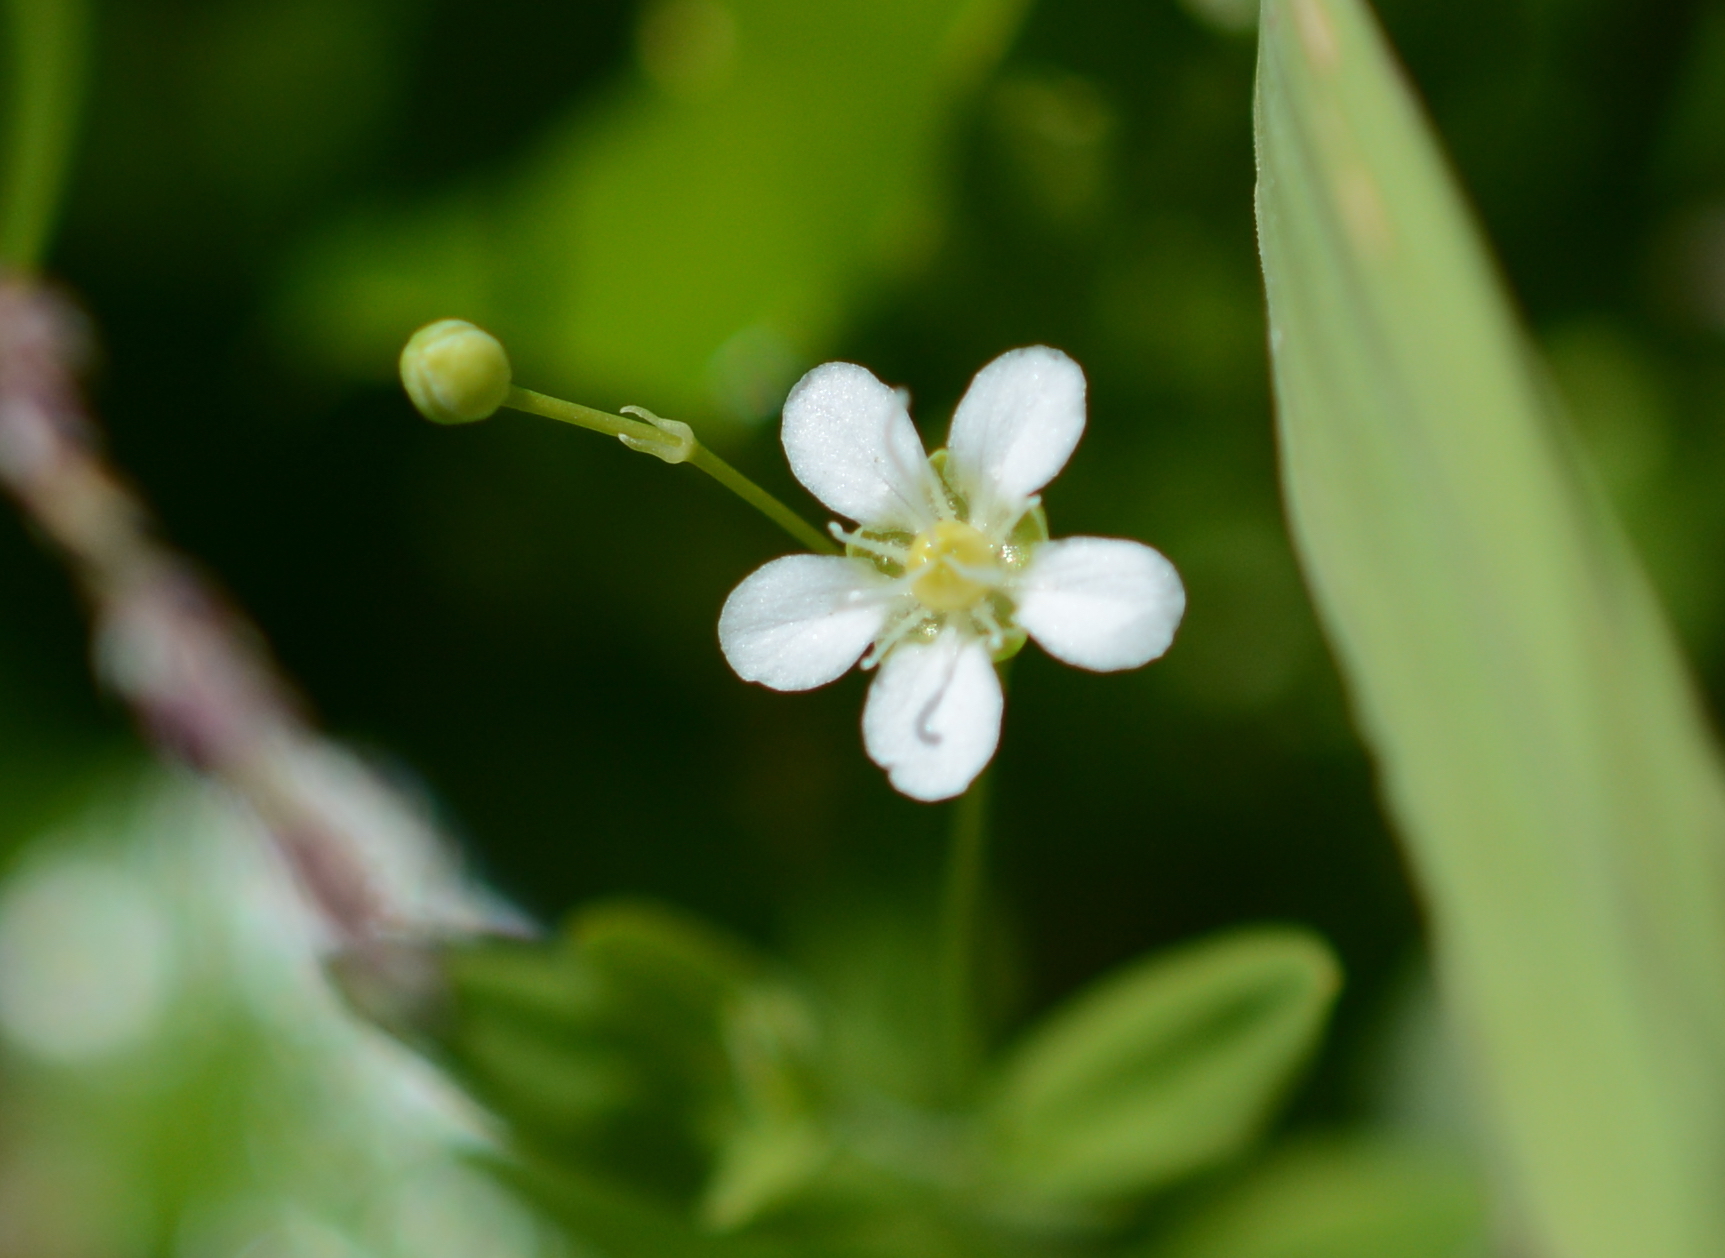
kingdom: Plantae
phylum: Tracheophyta
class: Magnoliopsida
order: Caryophyllales
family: Caryophyllaceae
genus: Moehringia
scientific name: Moehringia lateriflora
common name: Blunt-leaved sandwort
